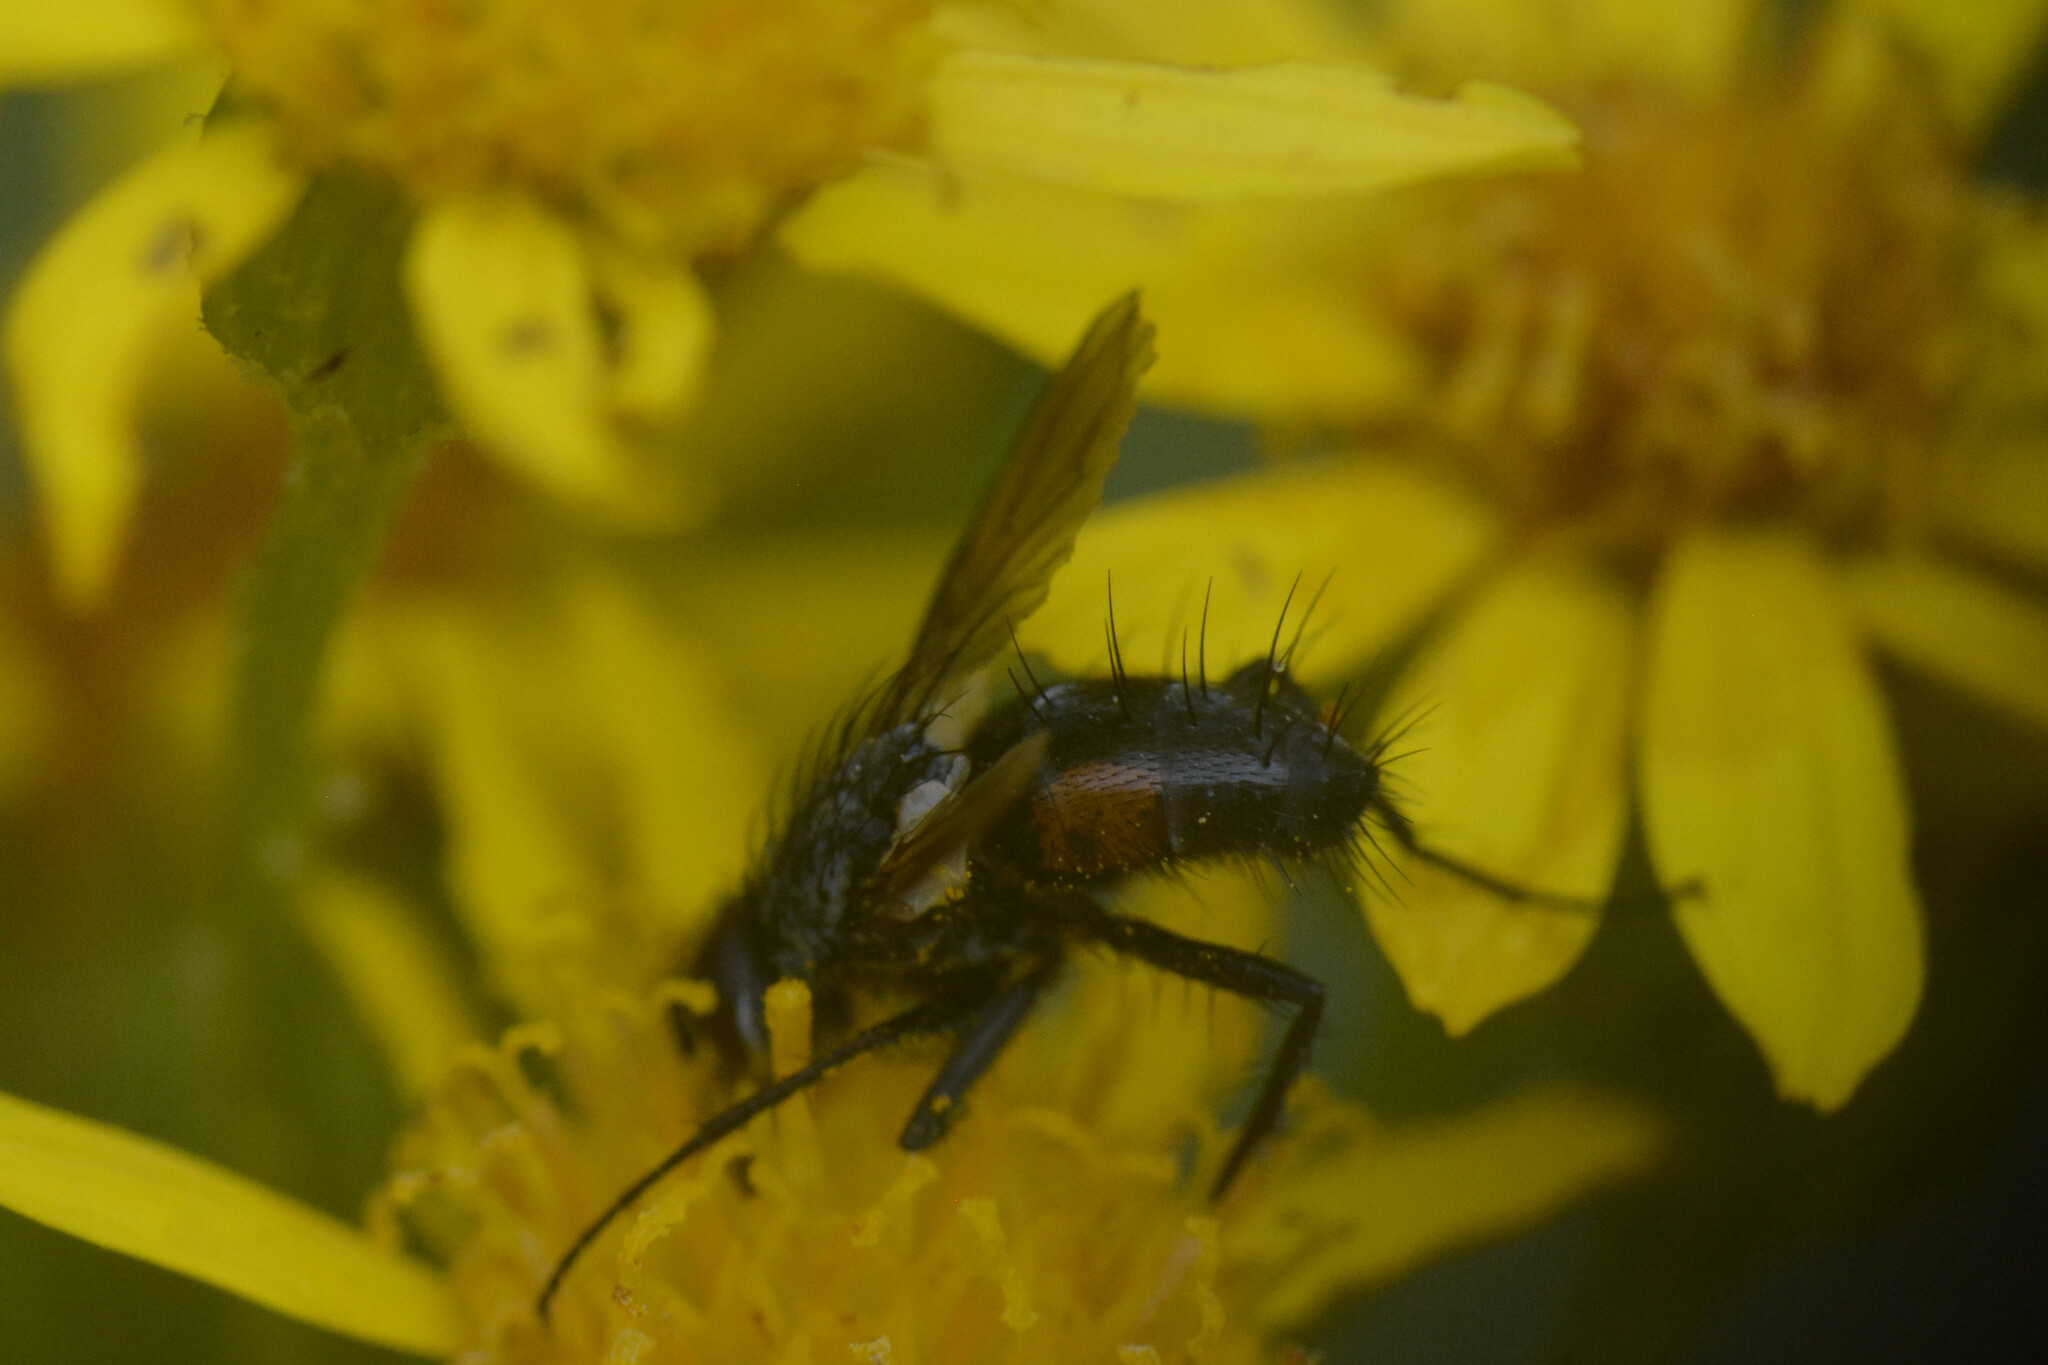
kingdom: Animalia
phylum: Arthropoda
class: Insecta
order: Diptera
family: Tachinidae
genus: Eriothrix
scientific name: Eriothrix rufomaculatus
